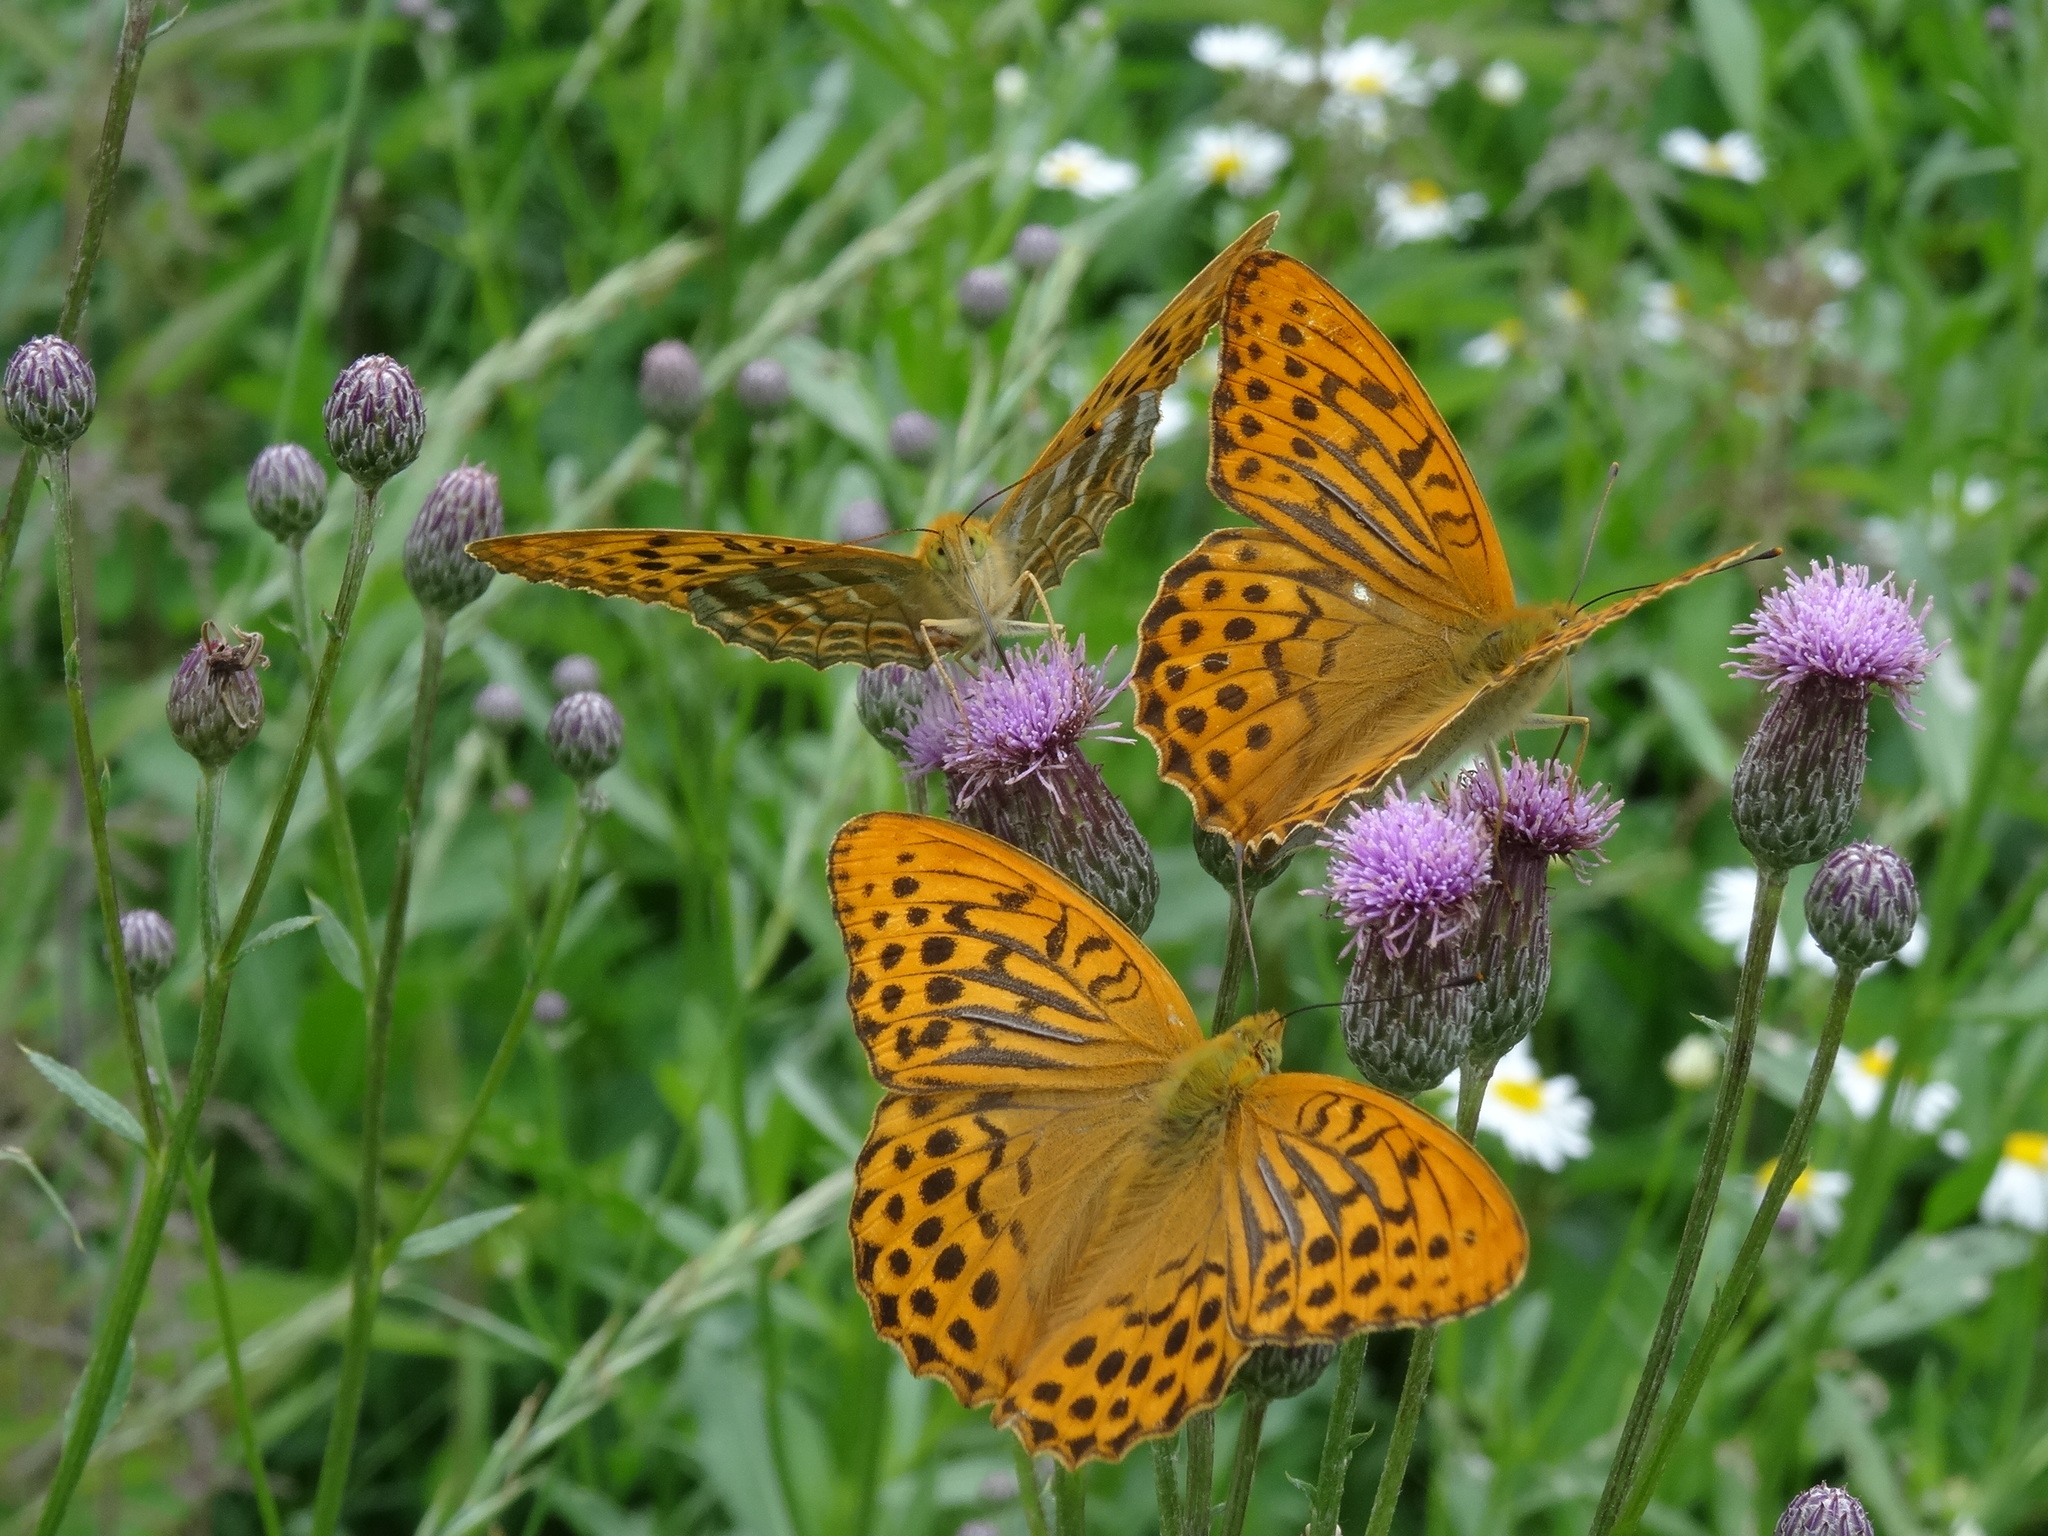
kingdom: Animalia
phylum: Arthropoda
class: Insecta
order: Lepidoptera
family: Nymphalidae
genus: Argynnis
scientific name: Argynnis paphia
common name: Silver-washed fritillary
